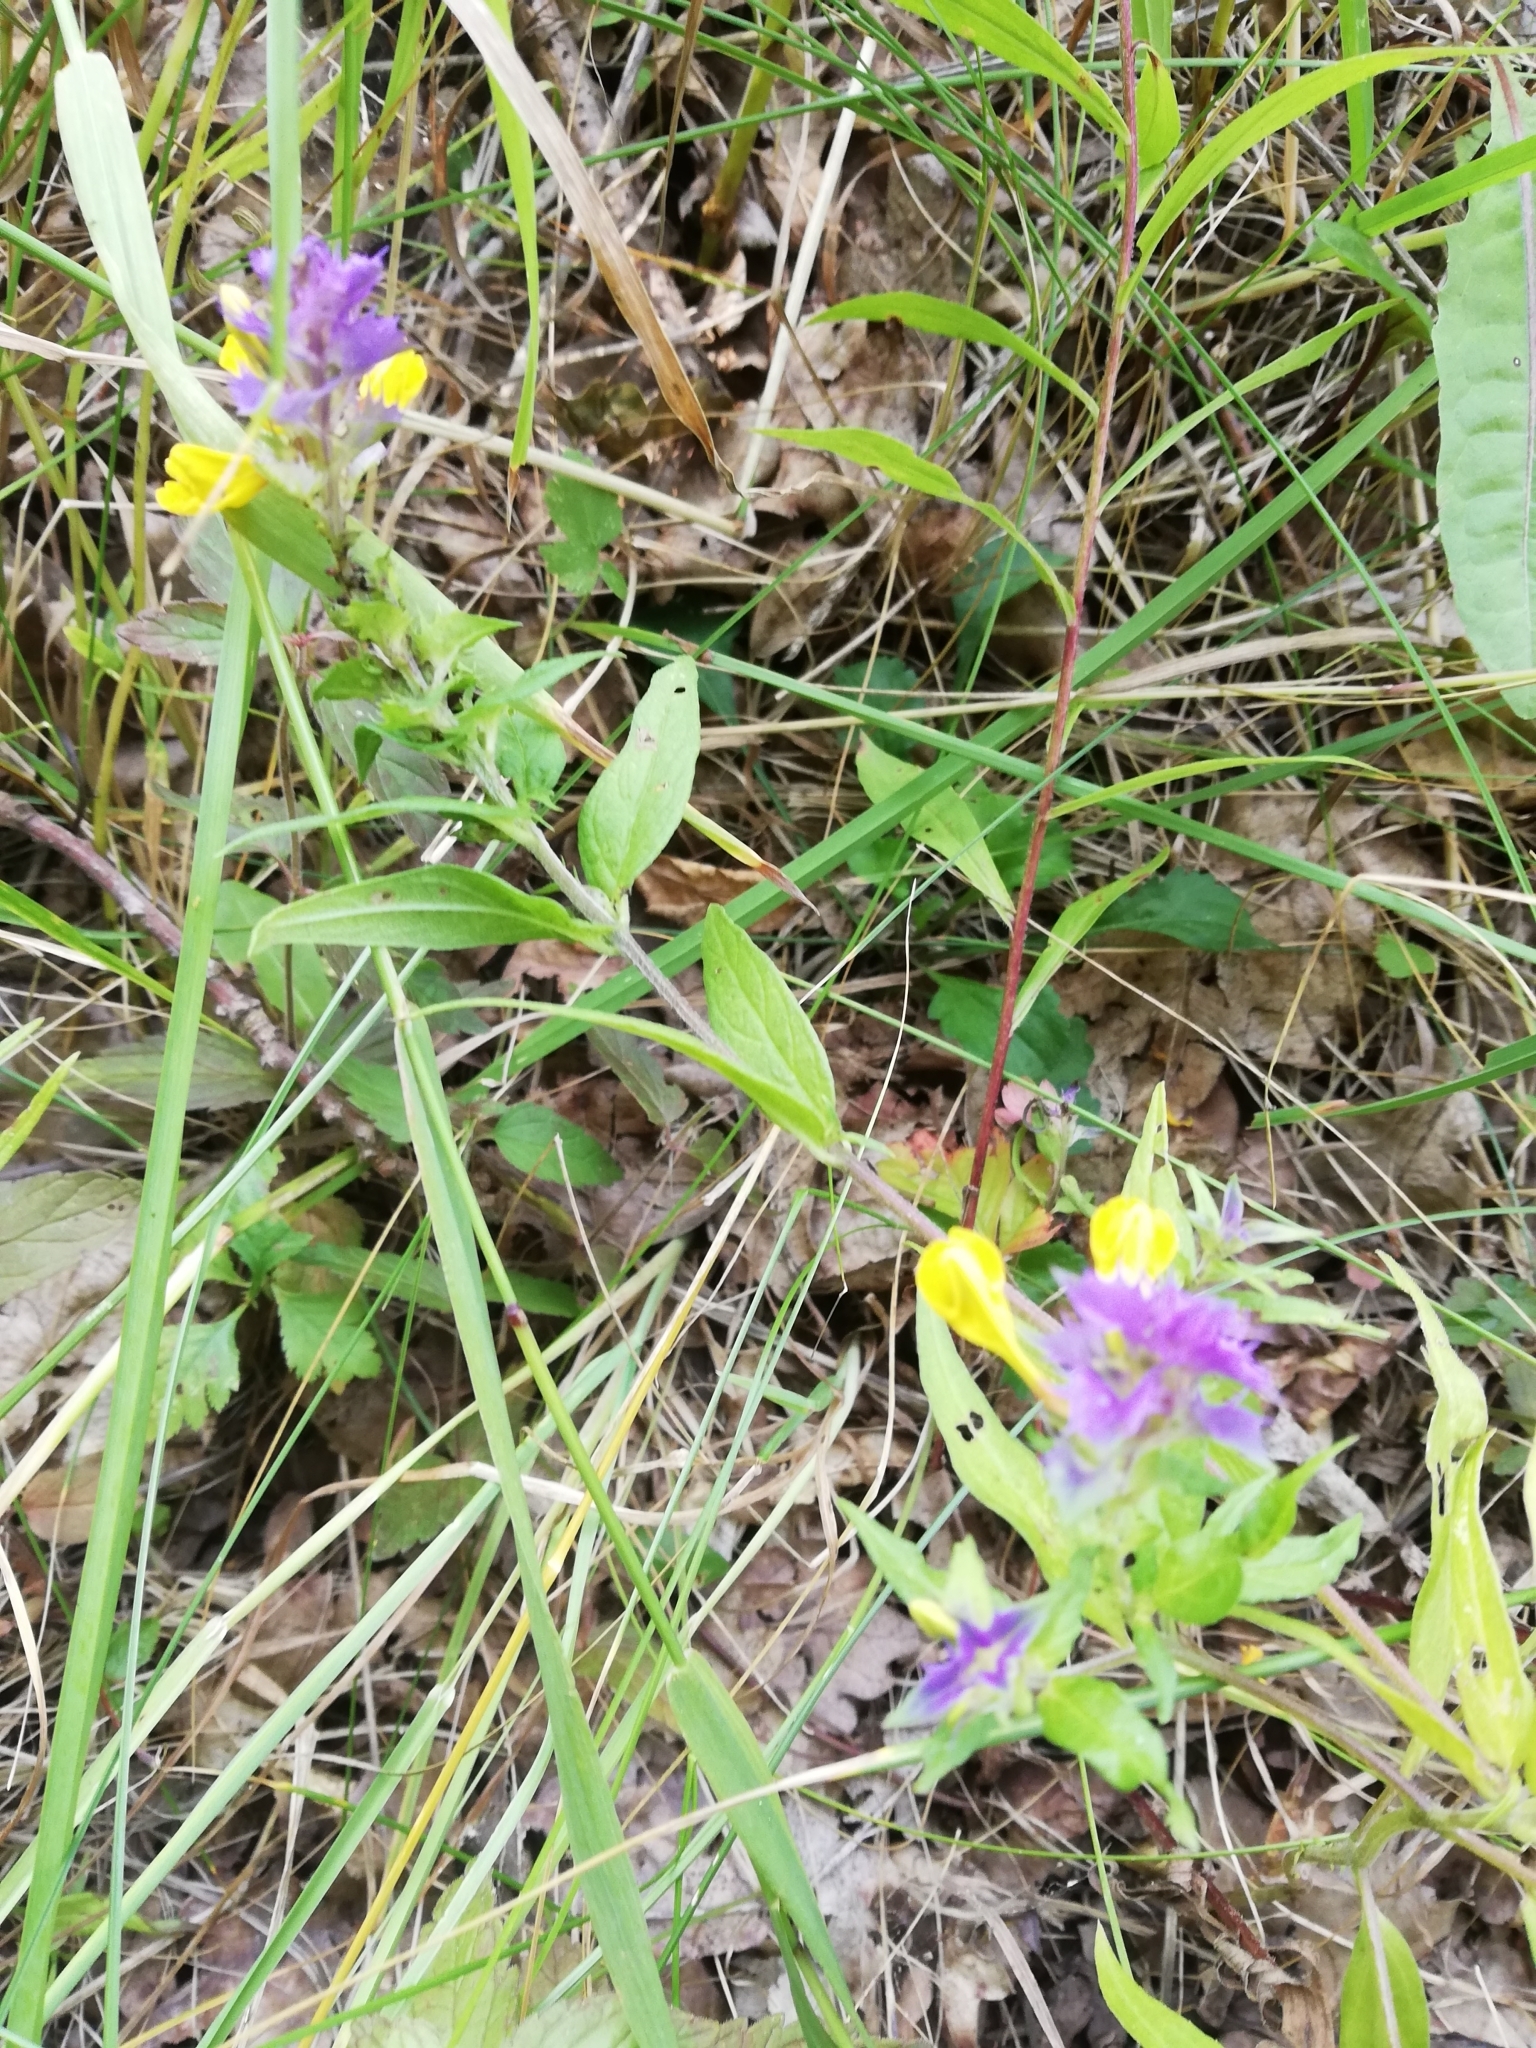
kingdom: Plantae
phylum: Tracheophyta
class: Magnoliopsida
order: Lamiales
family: Orobanchaceae
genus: Melampyrum
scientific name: Melampyrum nemorosum
